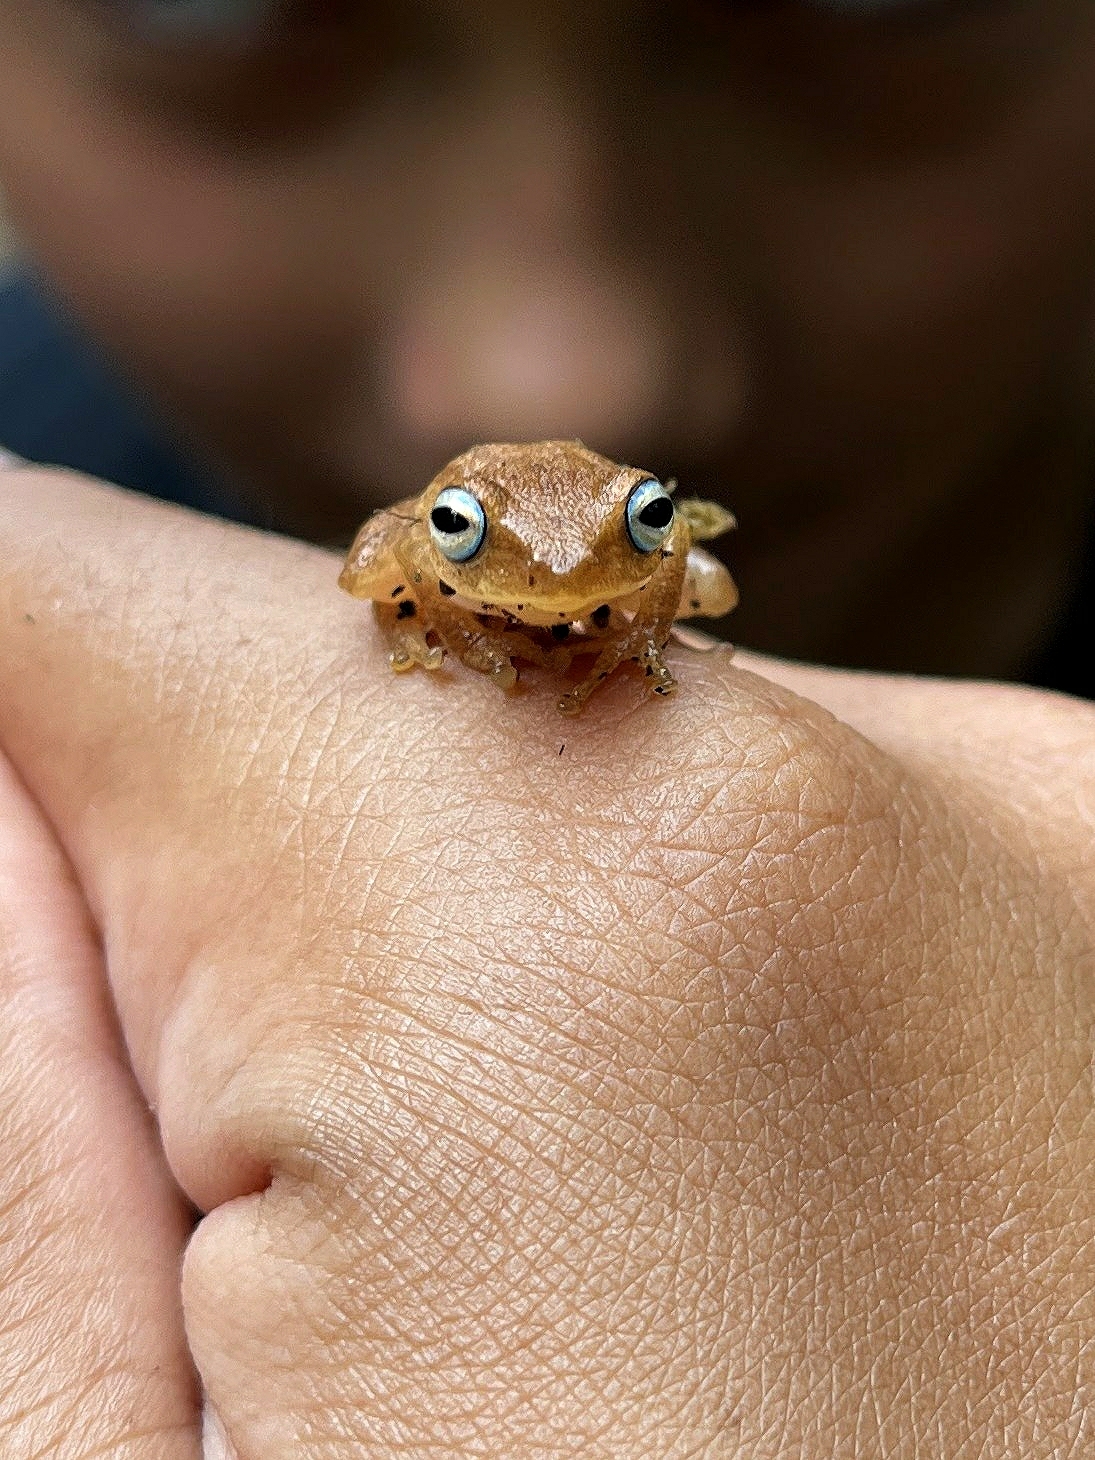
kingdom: Animalia
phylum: Chordata
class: Amphibia
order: Anura
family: Rhacophoridae
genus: Raorchestes
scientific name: Raorchestes luteolus
